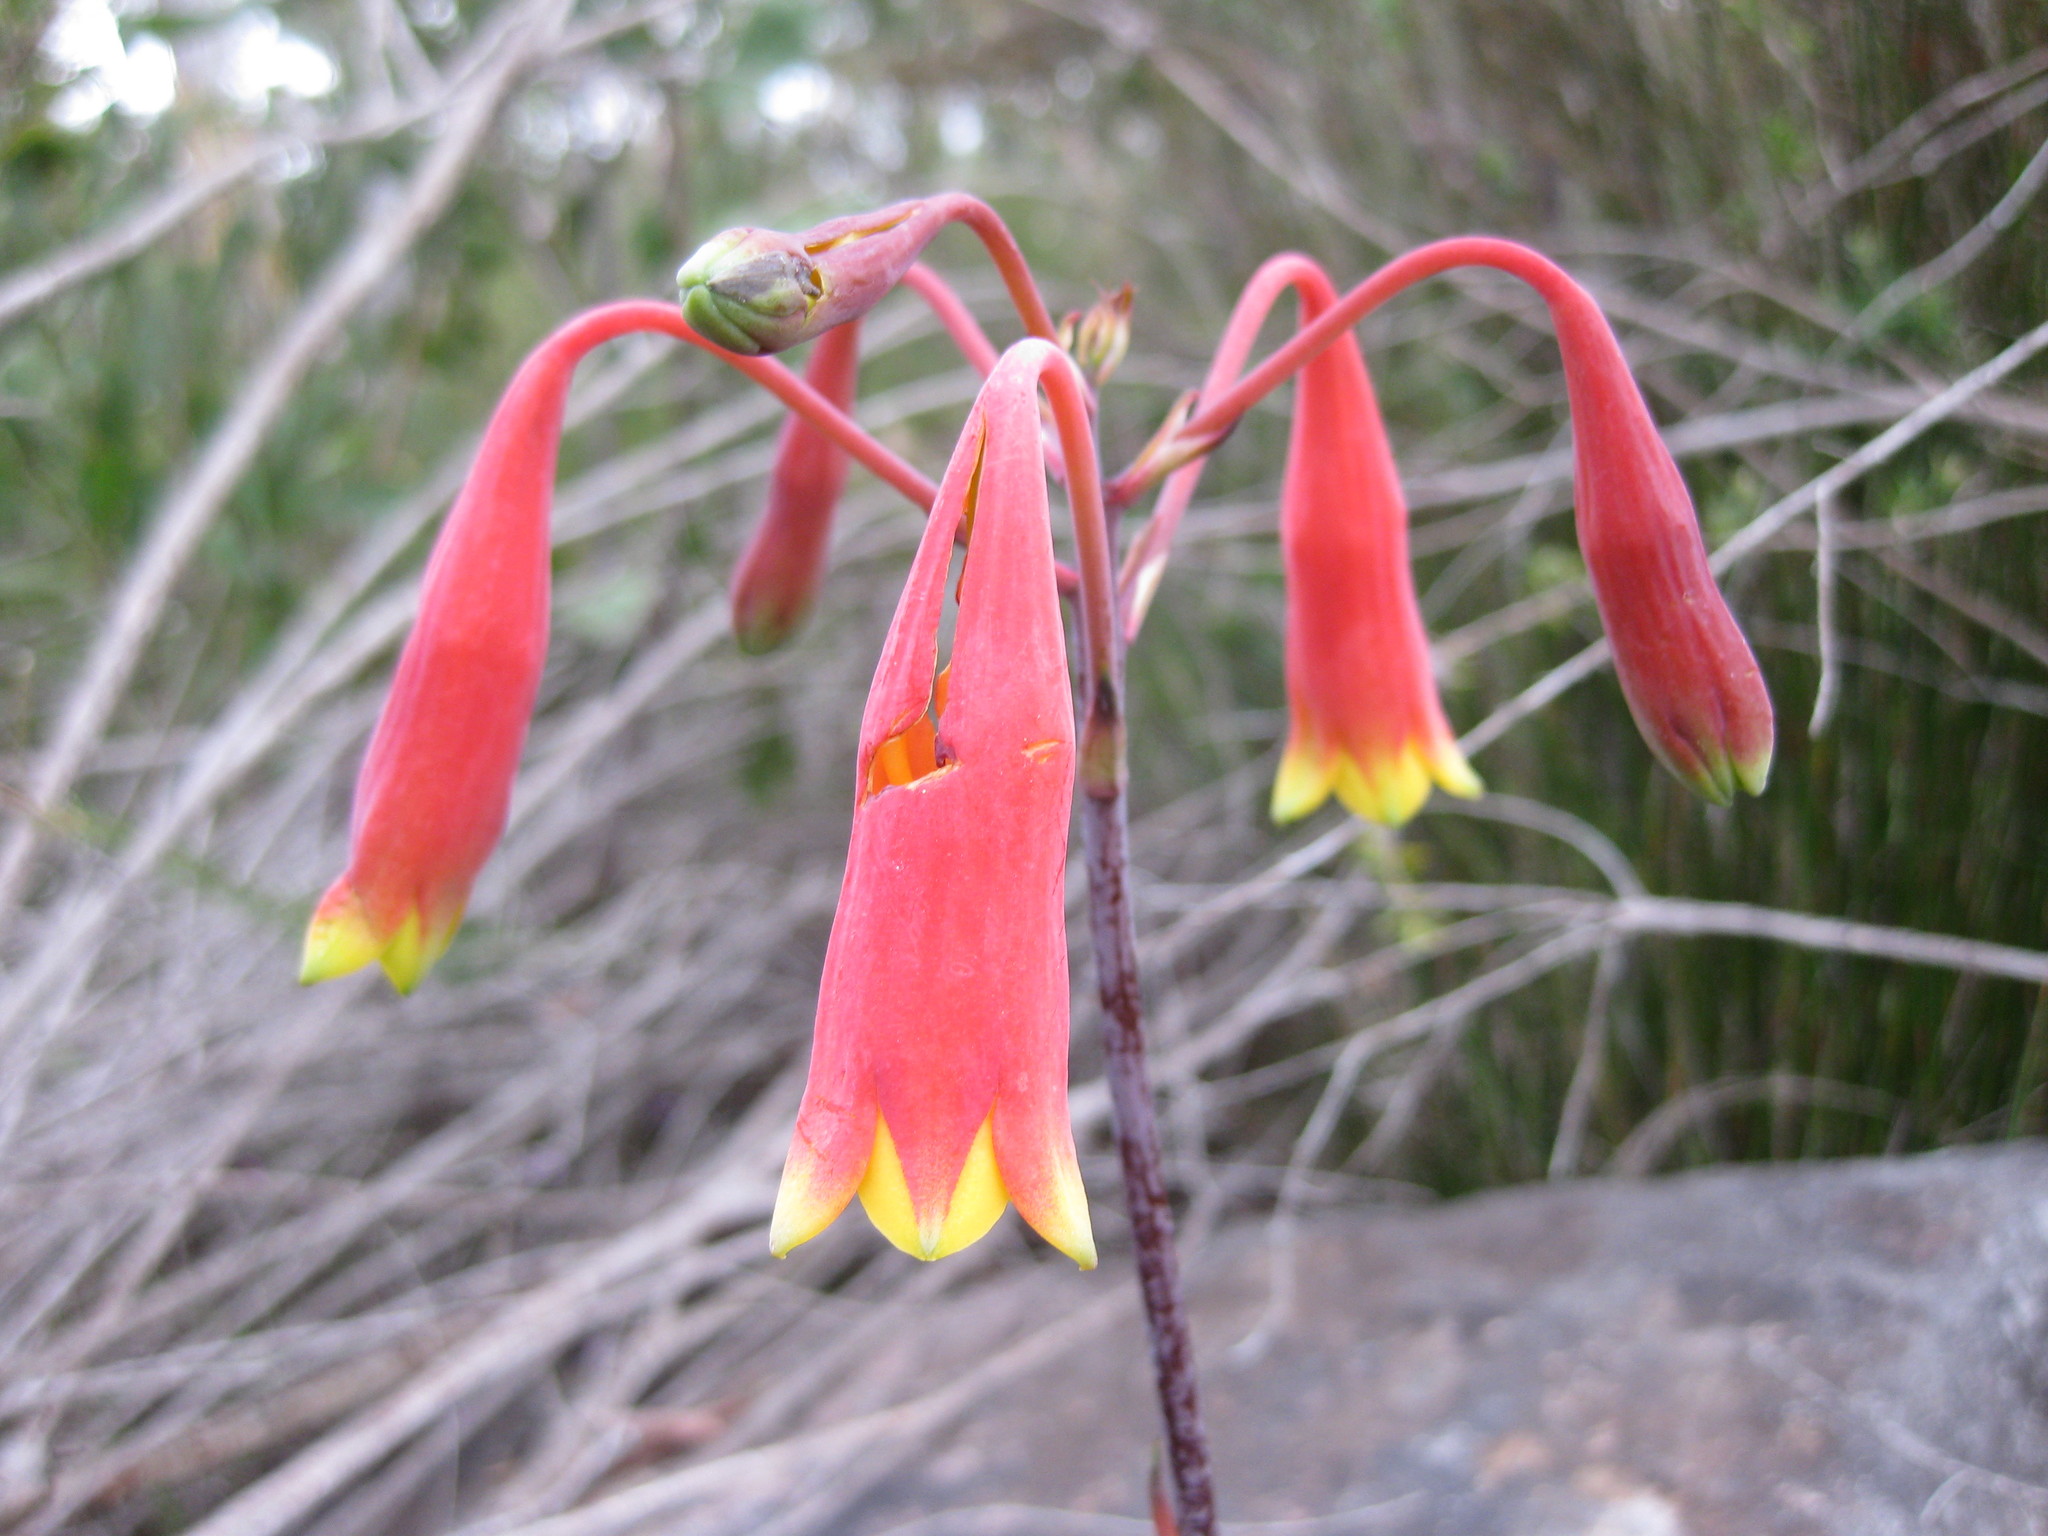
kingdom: Plantae
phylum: Tracheophyta
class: Liliopsida
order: Asparagales
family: Blandfordiaceae
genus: Blandfordia
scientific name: Blandfordia nobilis
